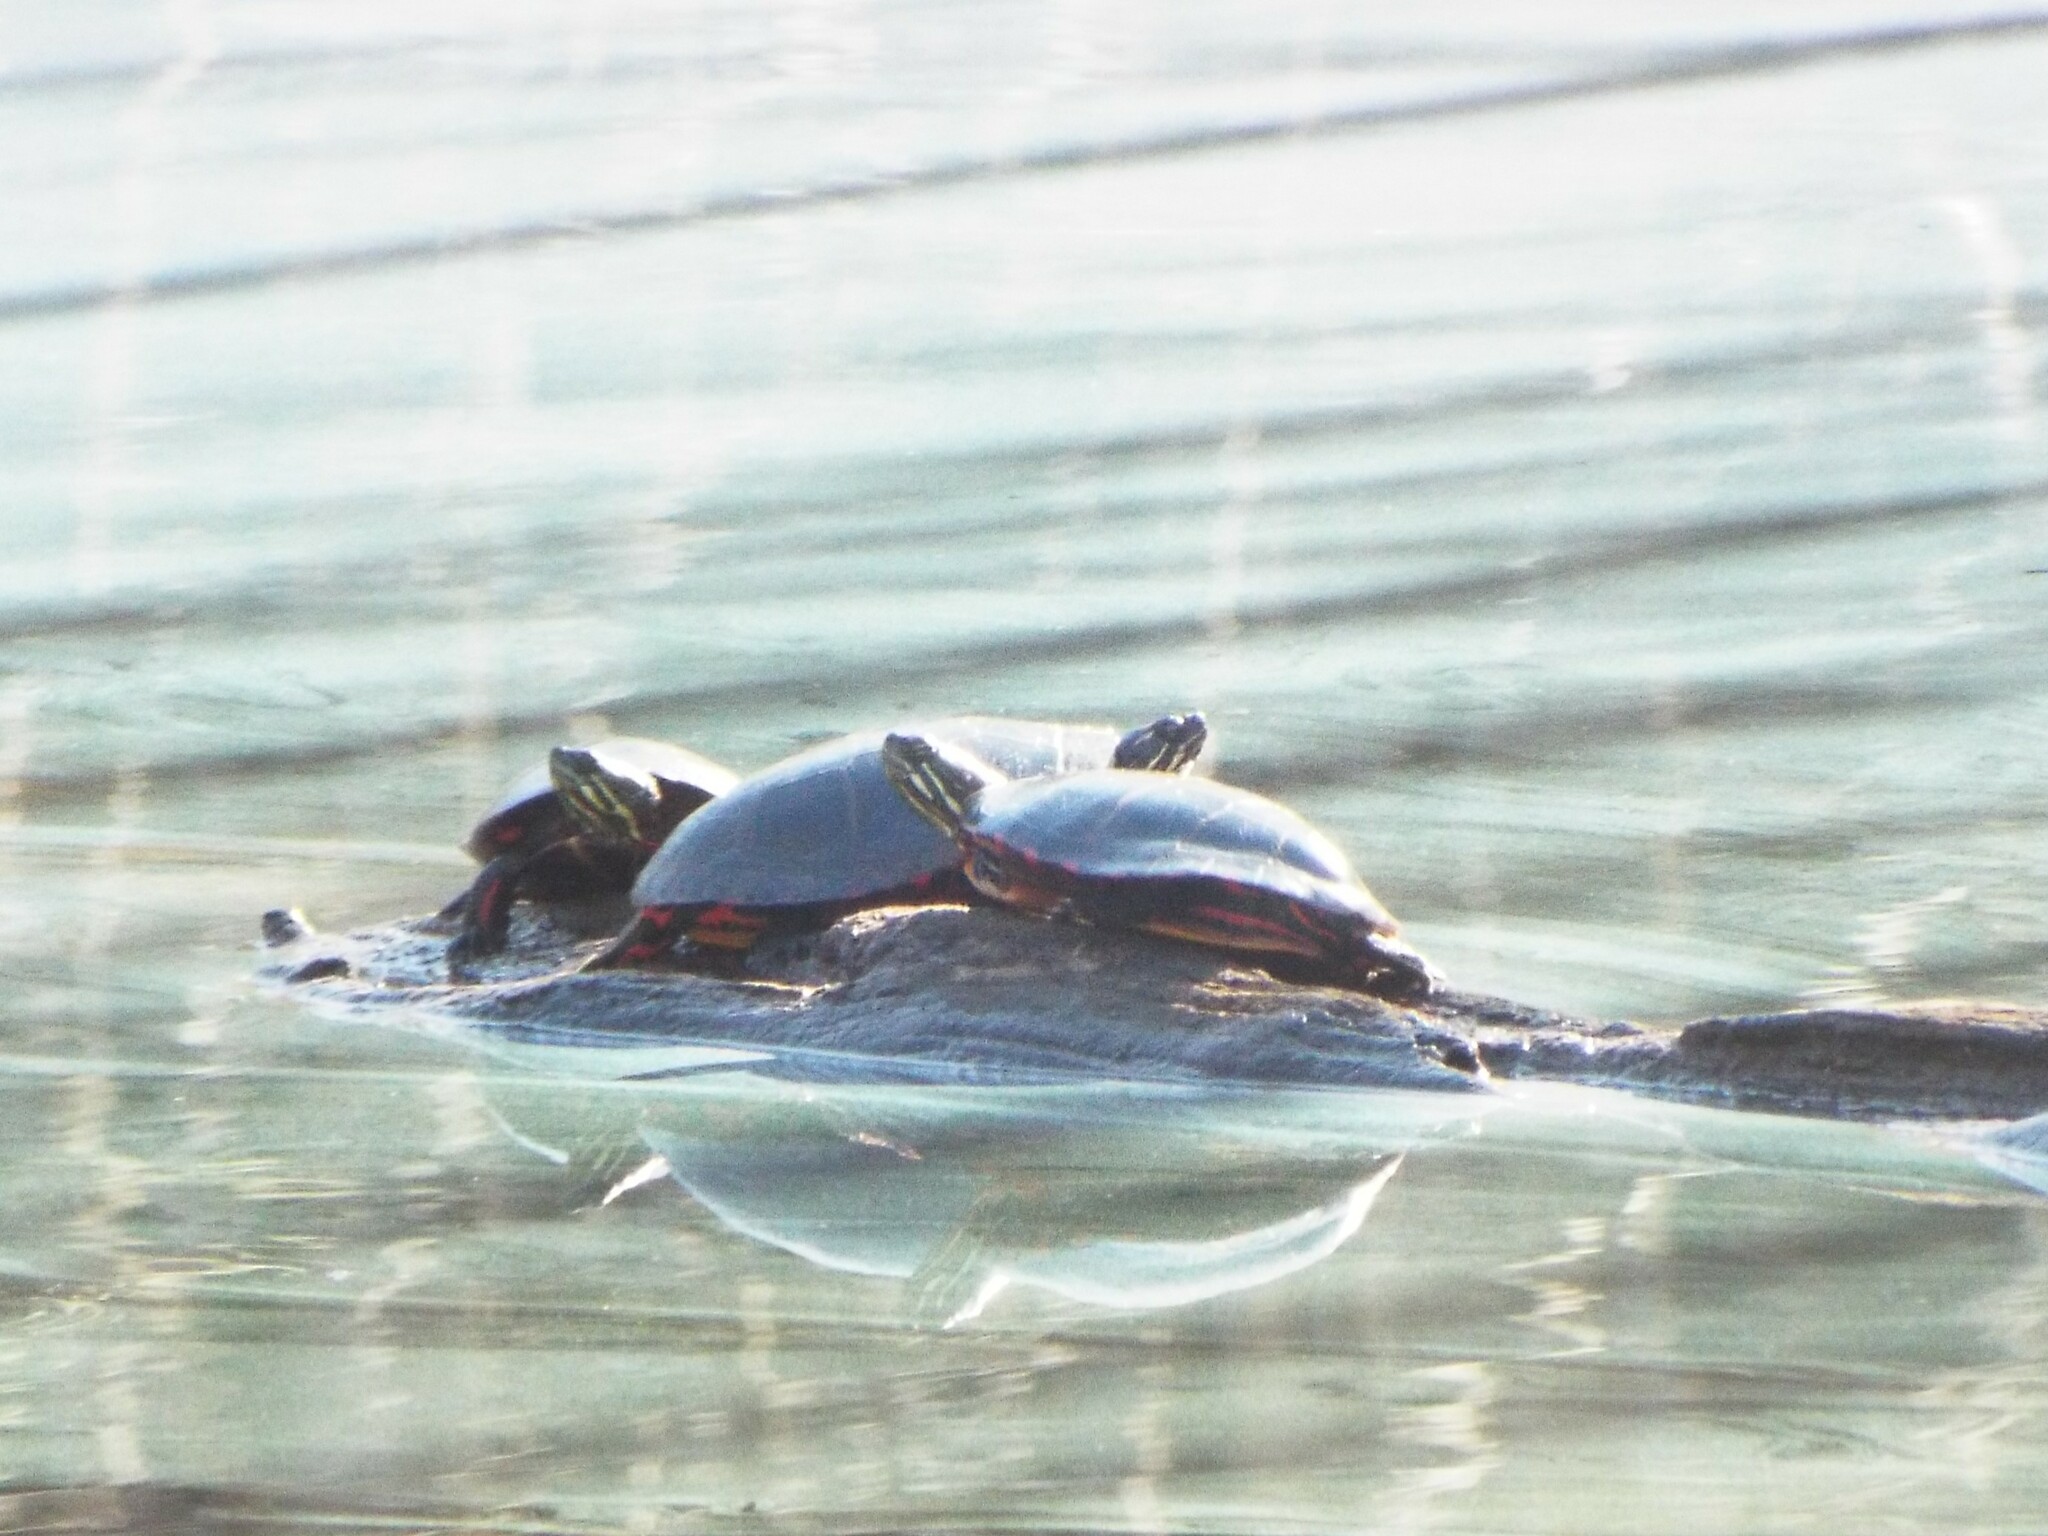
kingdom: Animalia
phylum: Chordata
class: Testudines
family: Emydidae
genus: Chrysemys
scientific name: Chrysemys picta
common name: Painted turtle
